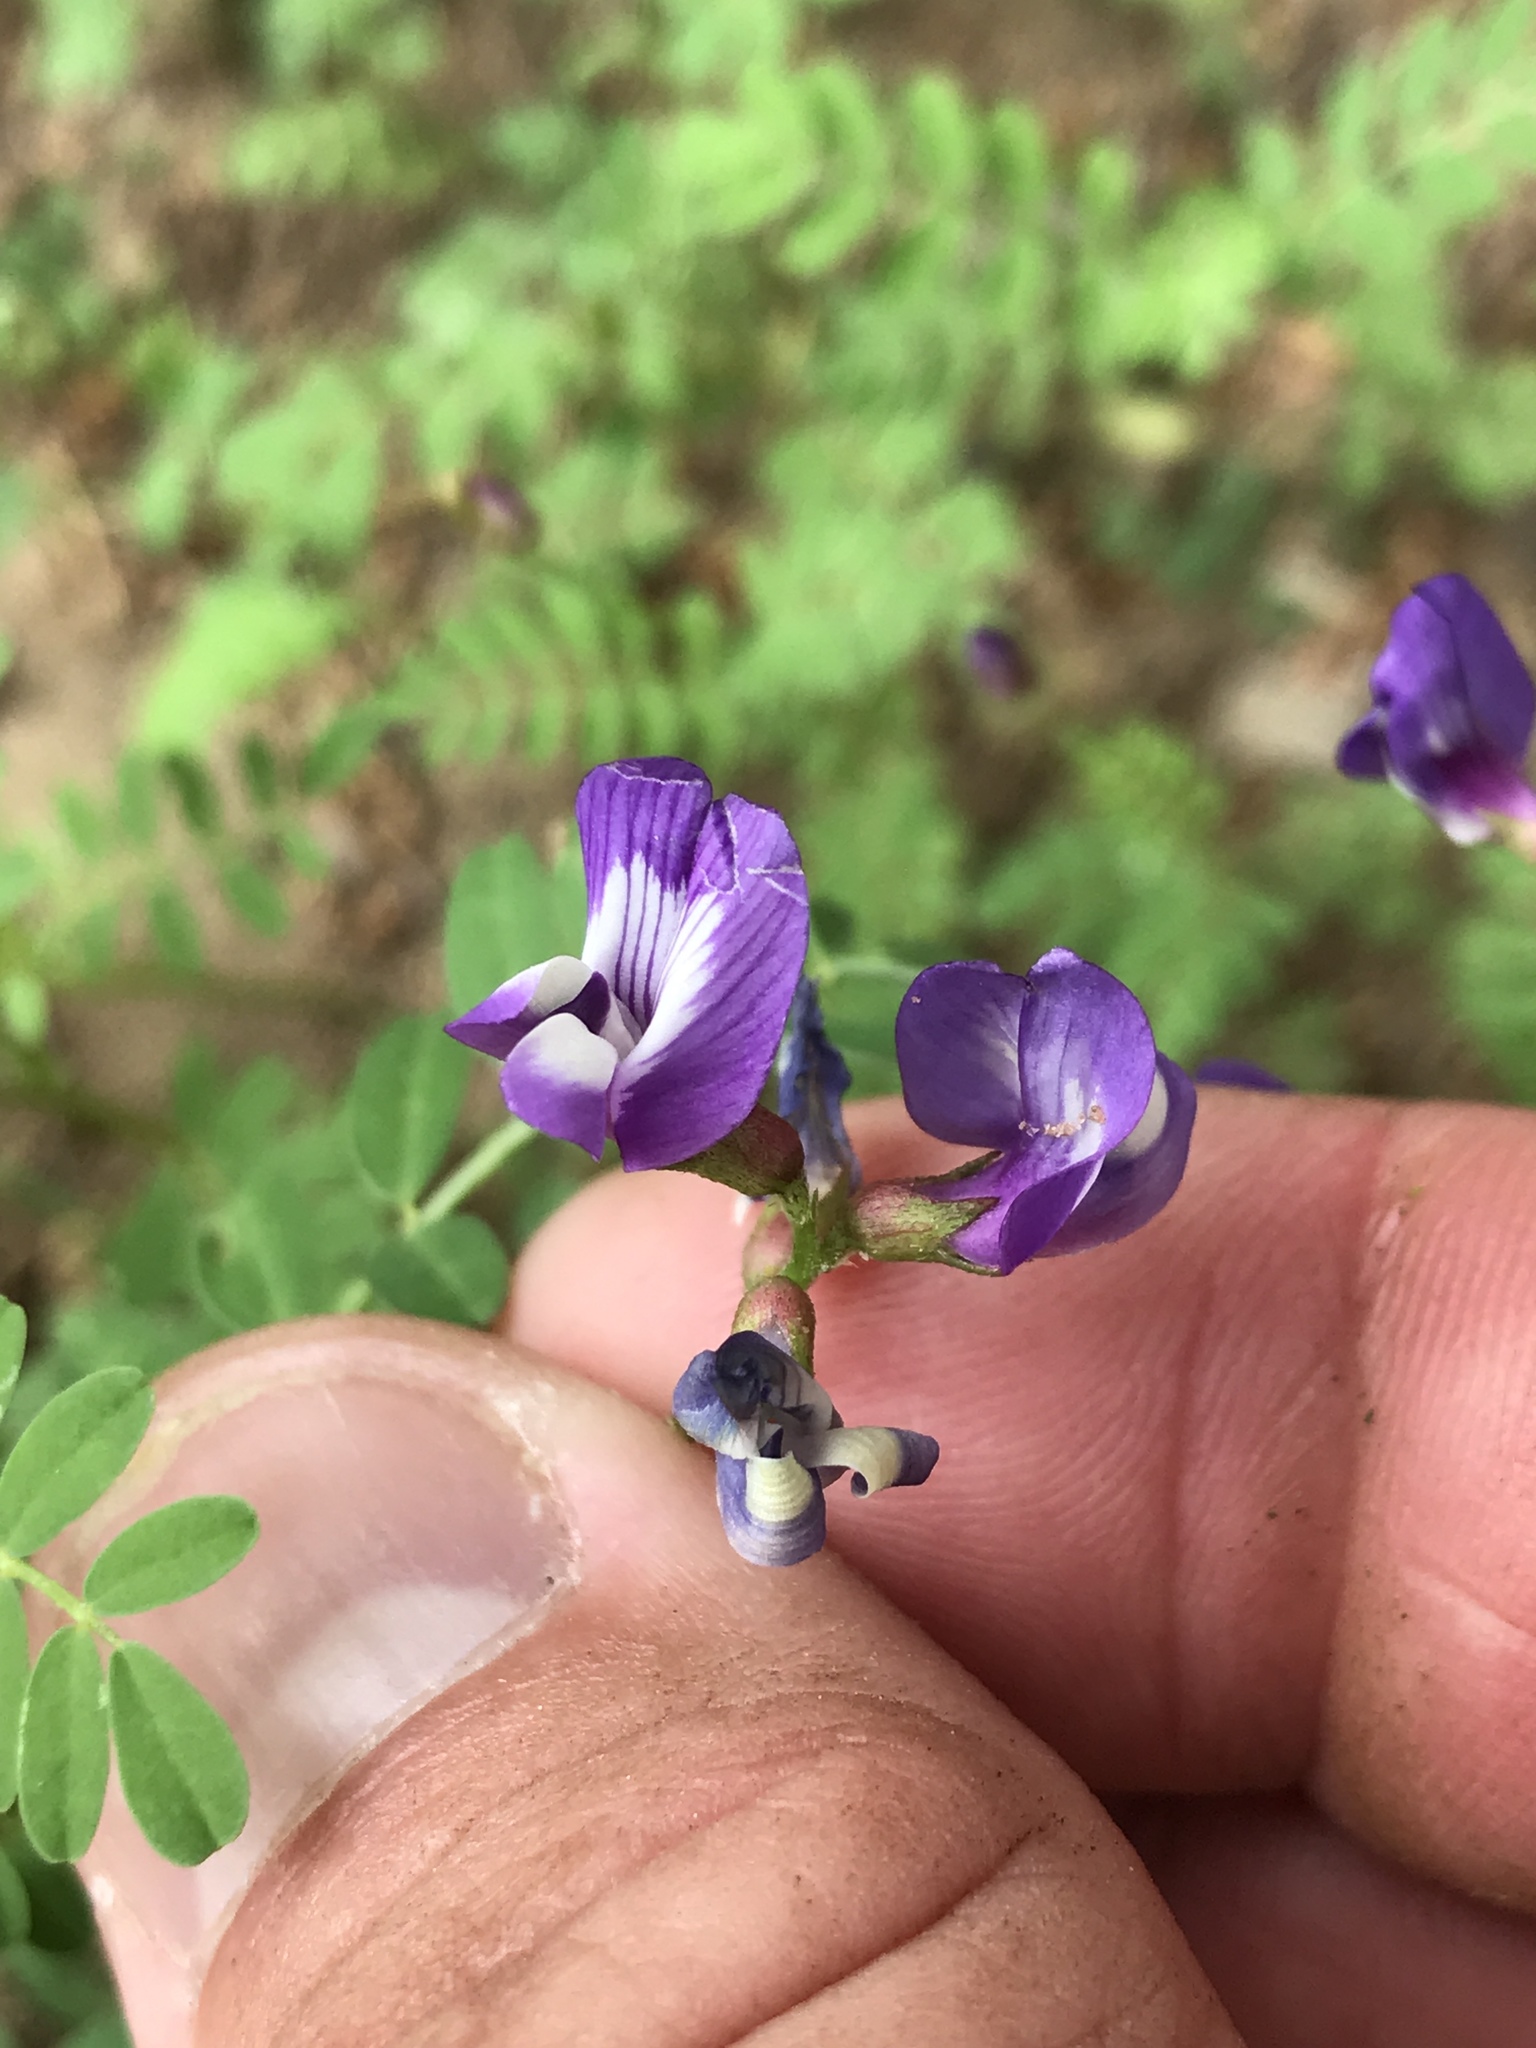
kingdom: Plantae
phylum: Tracheophyta
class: Magnoliopsida
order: Fabales
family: Fabaceae
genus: Vicia
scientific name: Vicia ludoviciana
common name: Louisiana vetch
